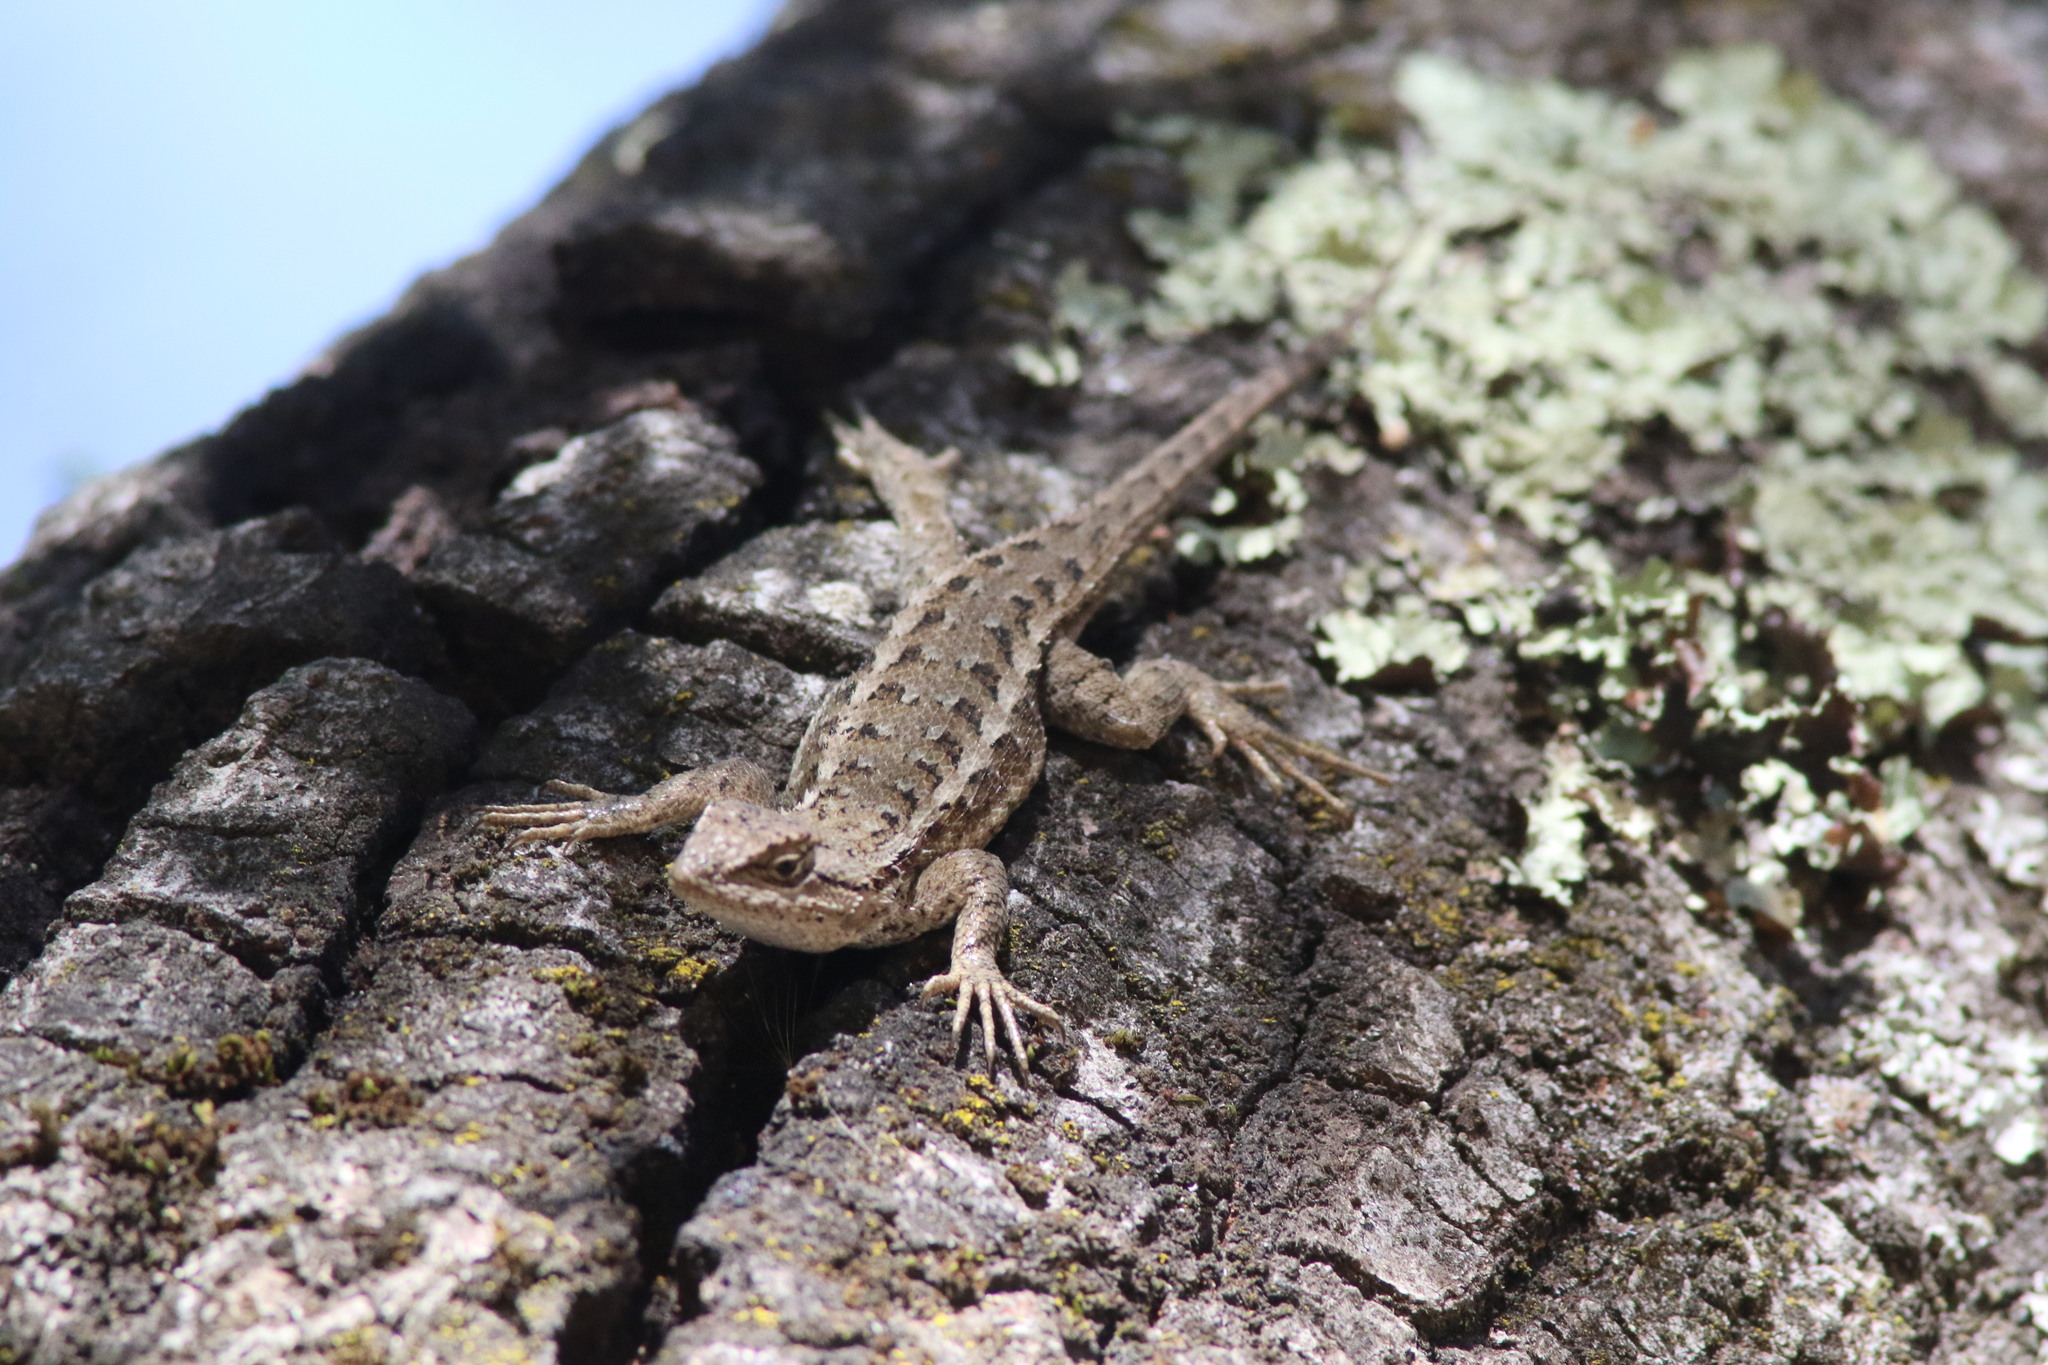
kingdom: Animalia
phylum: Chordata
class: Squamata
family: Phrynosomatidae
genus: Sceloporus
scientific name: Sceloporus occidentalis
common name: Western fence lizard
